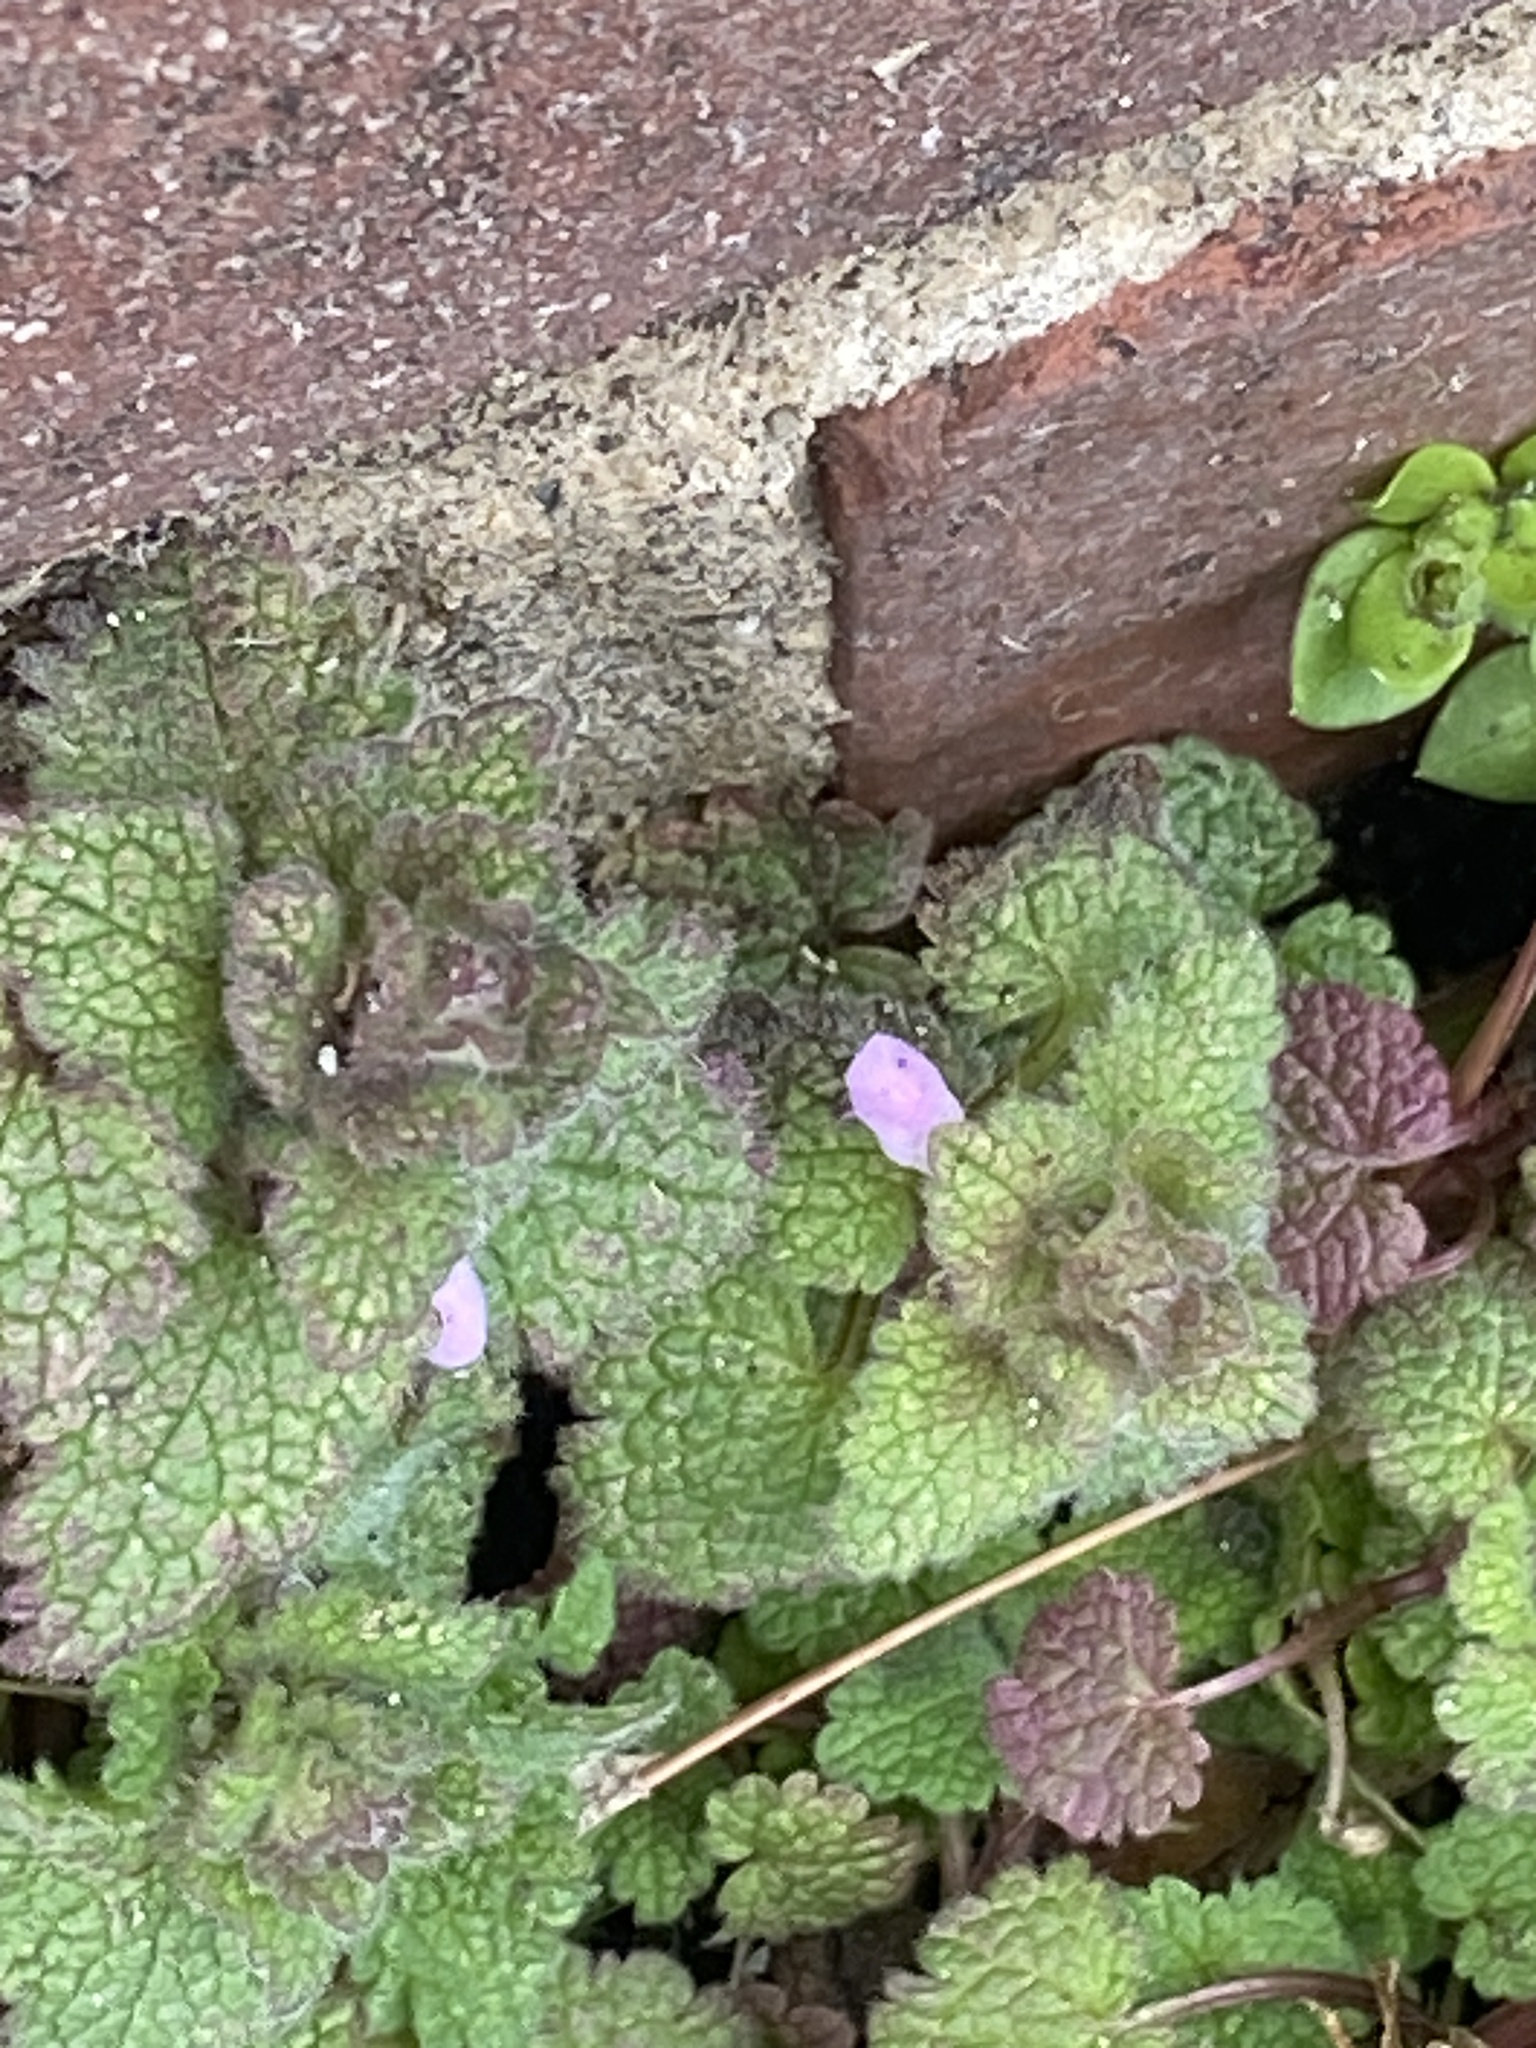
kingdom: Plantae
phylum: Tracheophyta
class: Magnoliopsida
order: Lamiales
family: Lamiaceae
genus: Lamium
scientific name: Lamium purpureum
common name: Red dead-nettle
